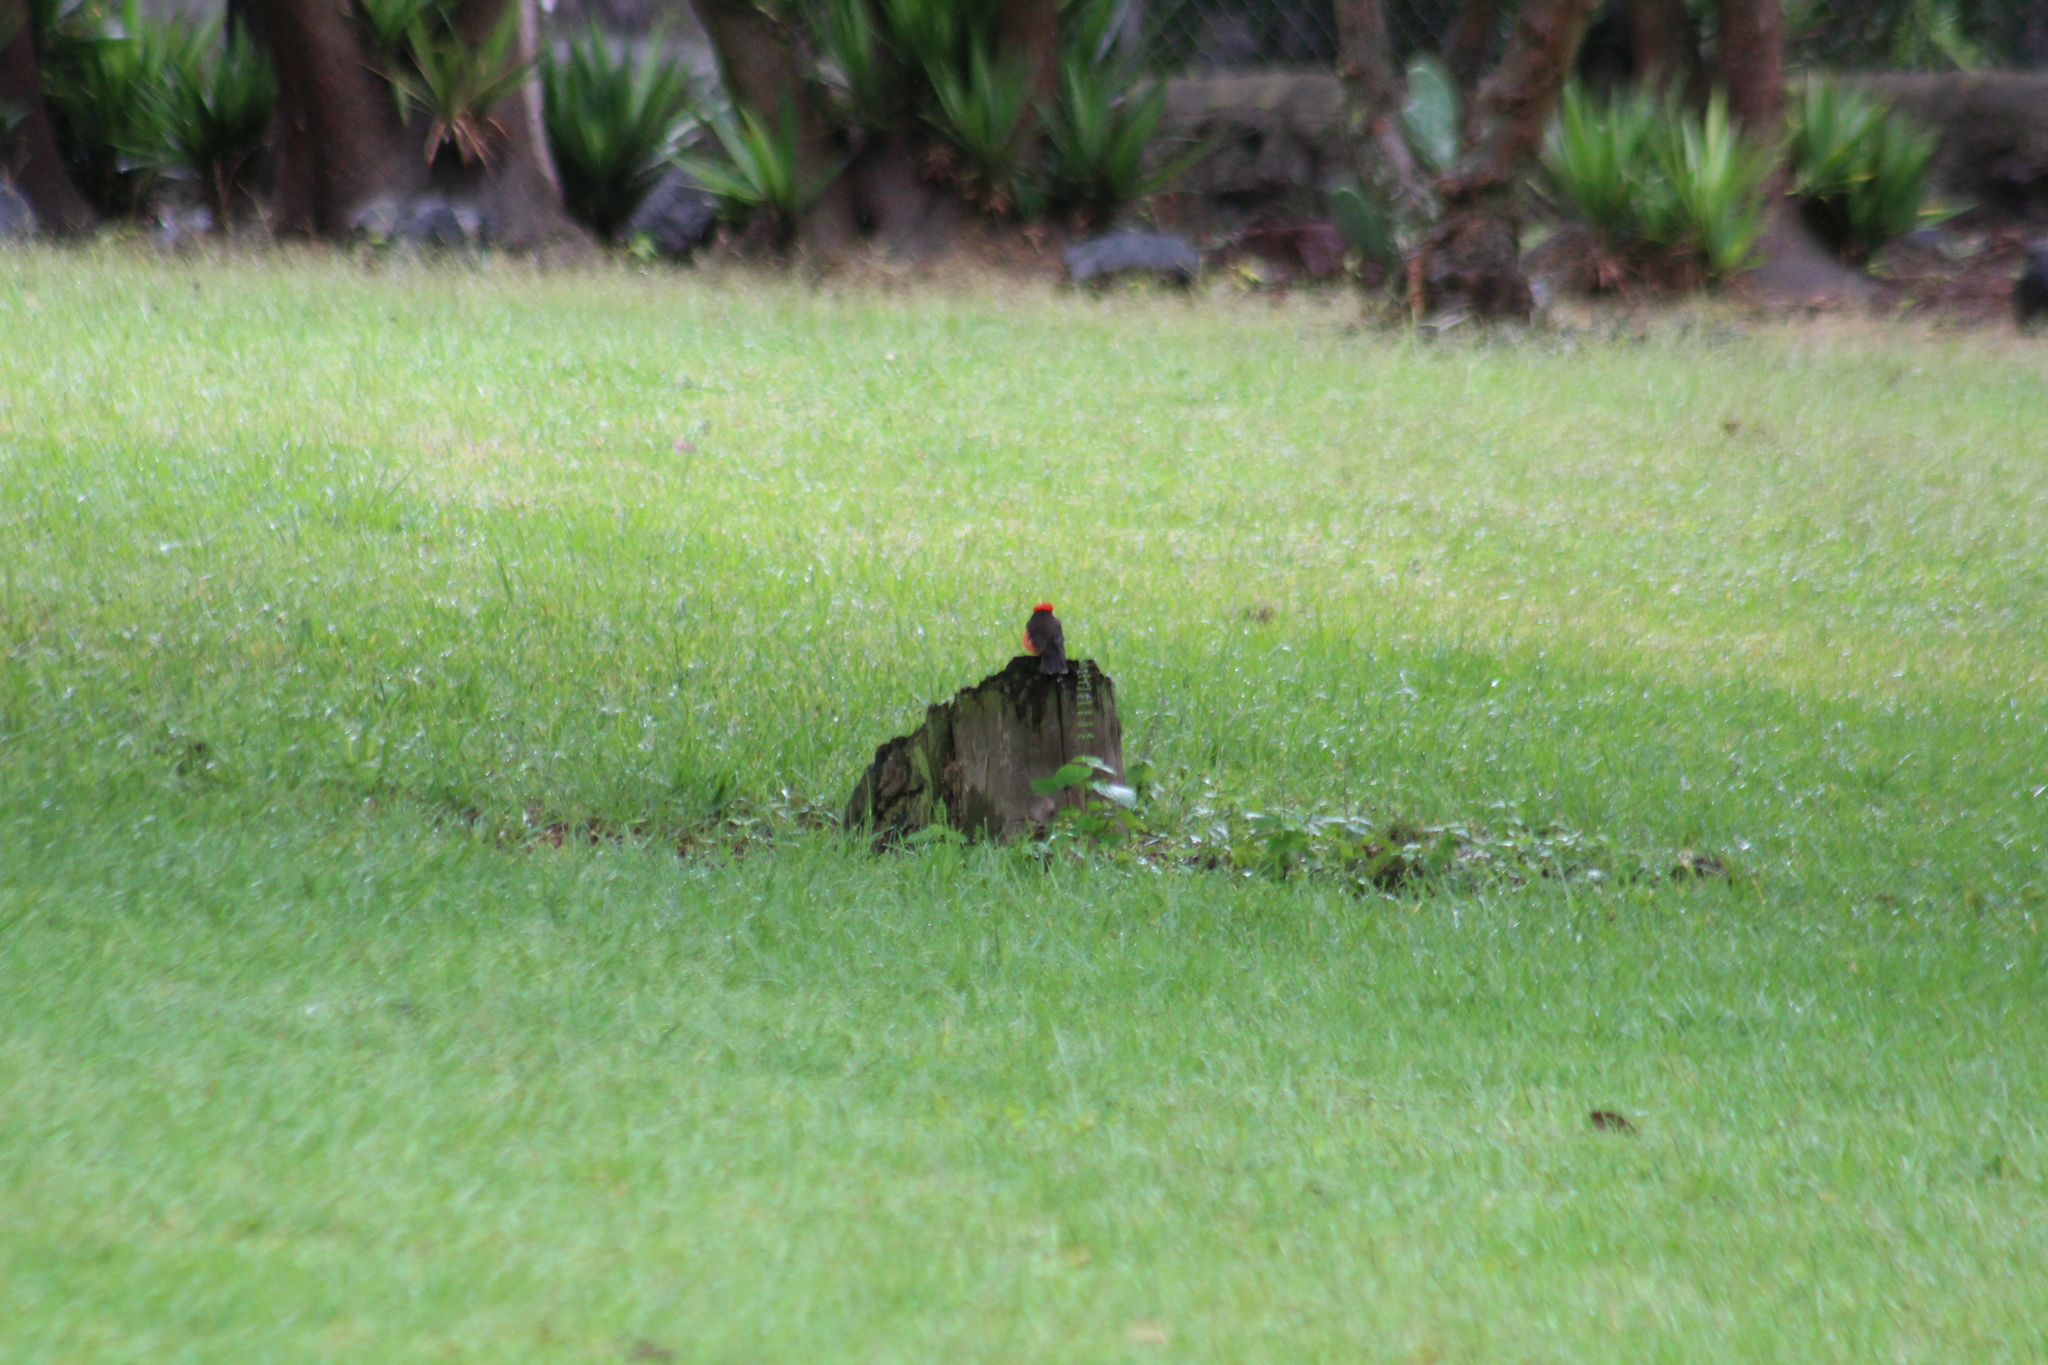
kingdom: Animalia
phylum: Chordata
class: Aves
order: Passeriformes
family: Tyrannidae
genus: Pyrocephalus
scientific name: Pyrocephalus rubinus
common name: Vermilion flycatcher
